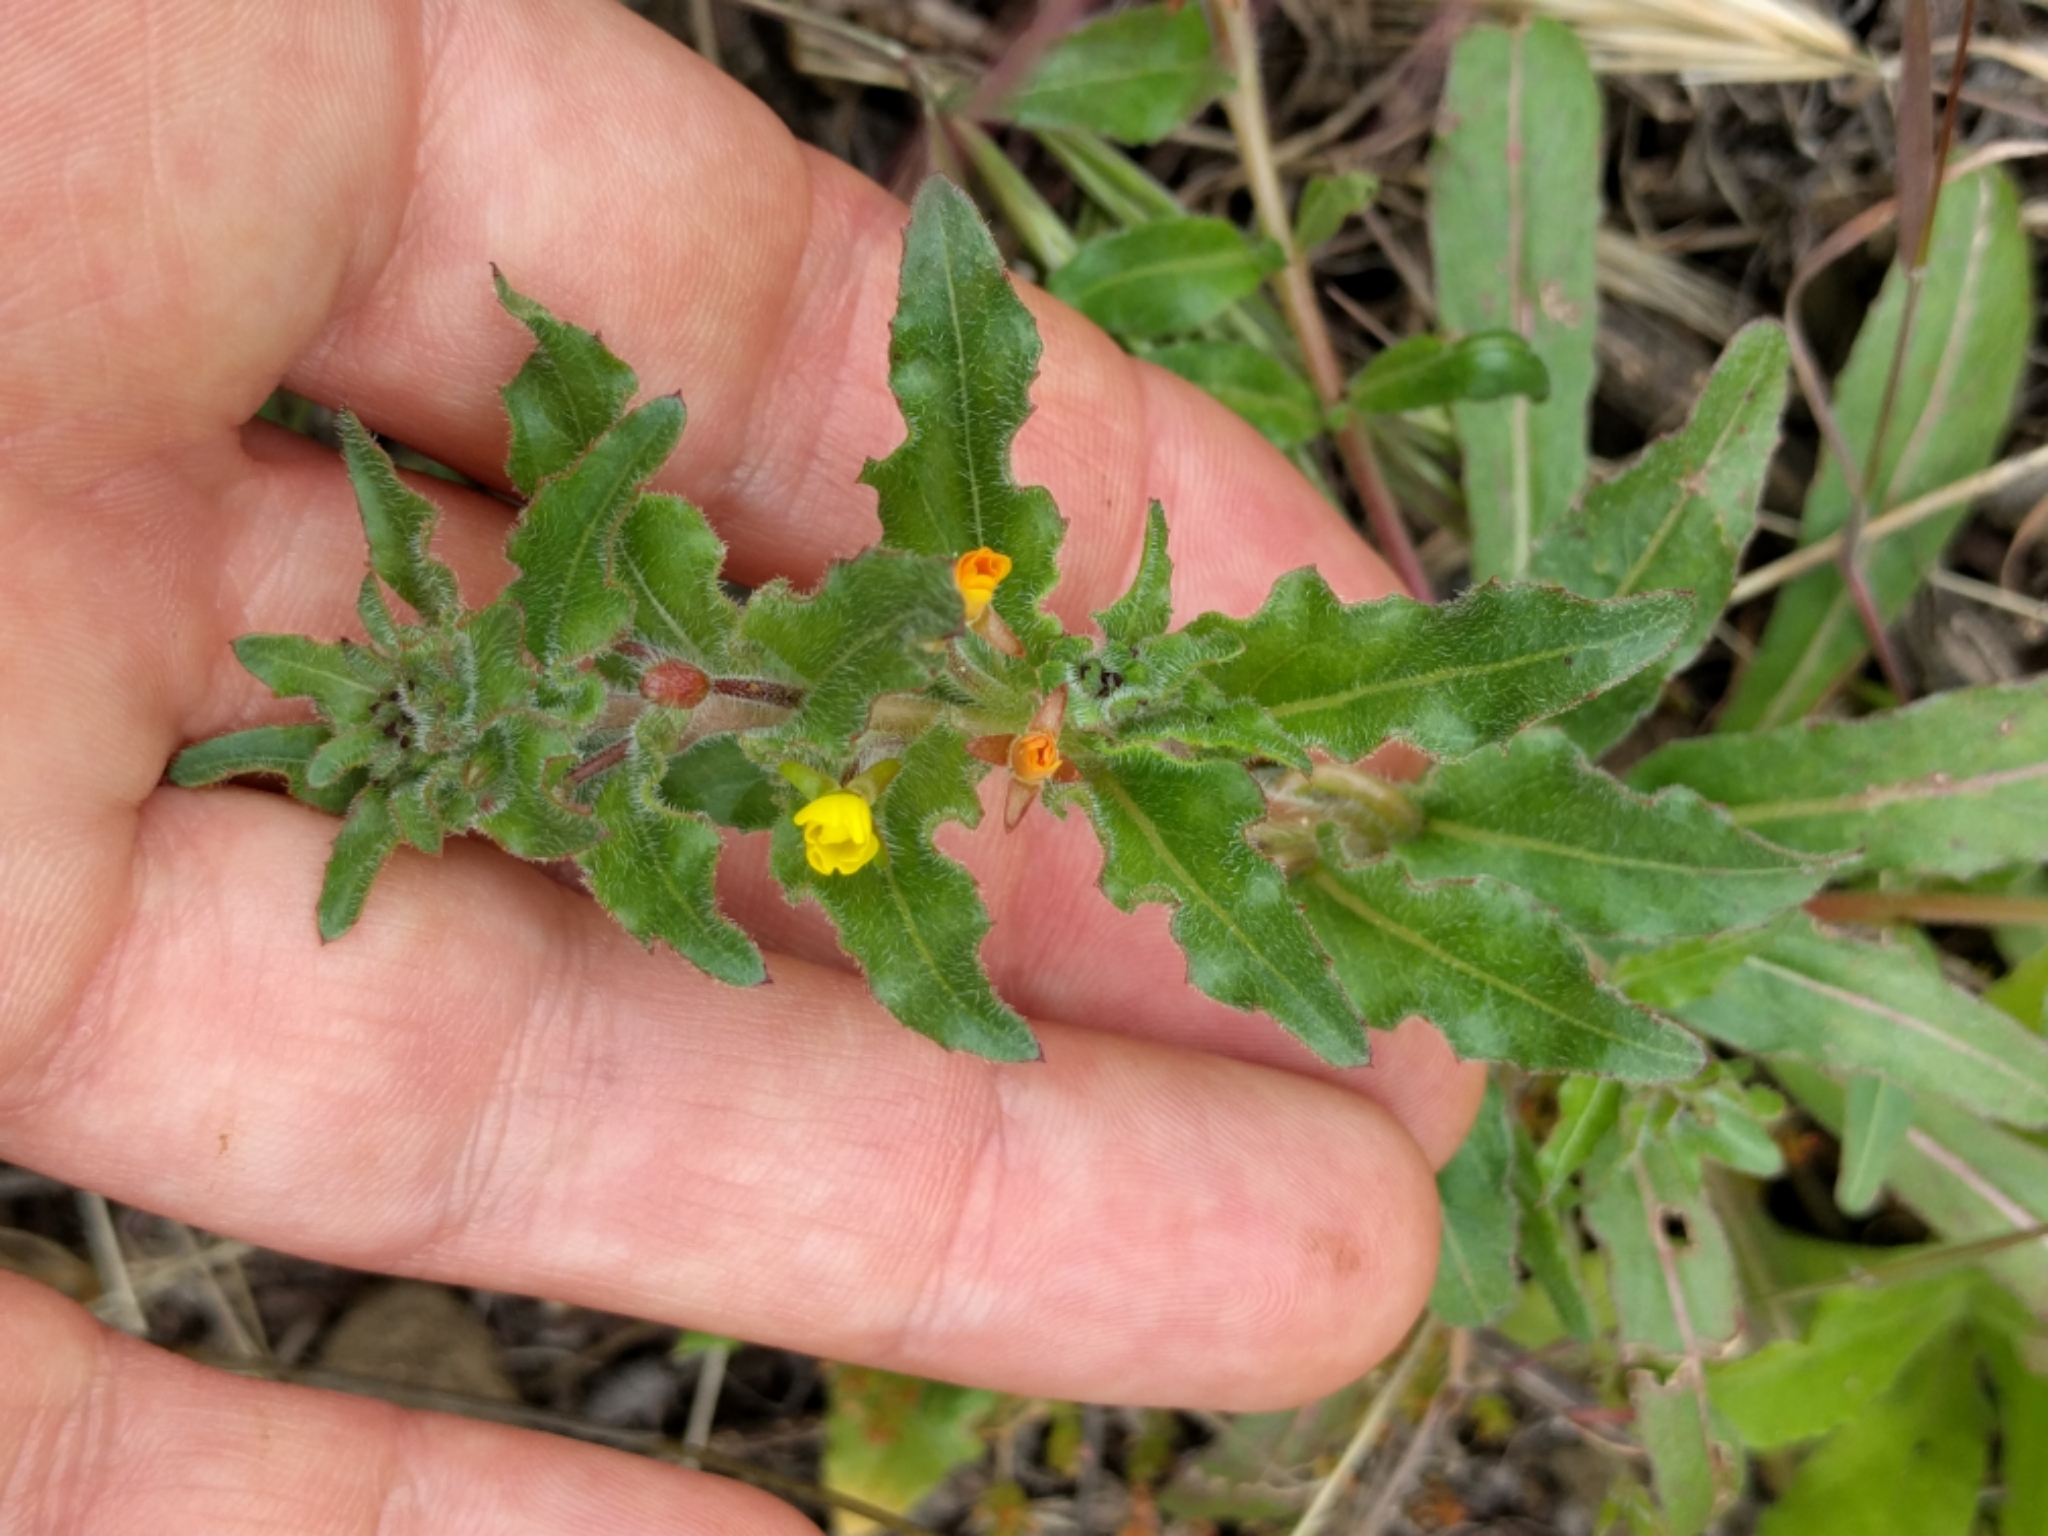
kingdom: Plantae
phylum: Tracheophyta
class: Magnoliopsida
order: Myrtales
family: Onagraceae
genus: Camissoniopsis
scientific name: Camissoniopsis micrantha
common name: Miniature suncup
